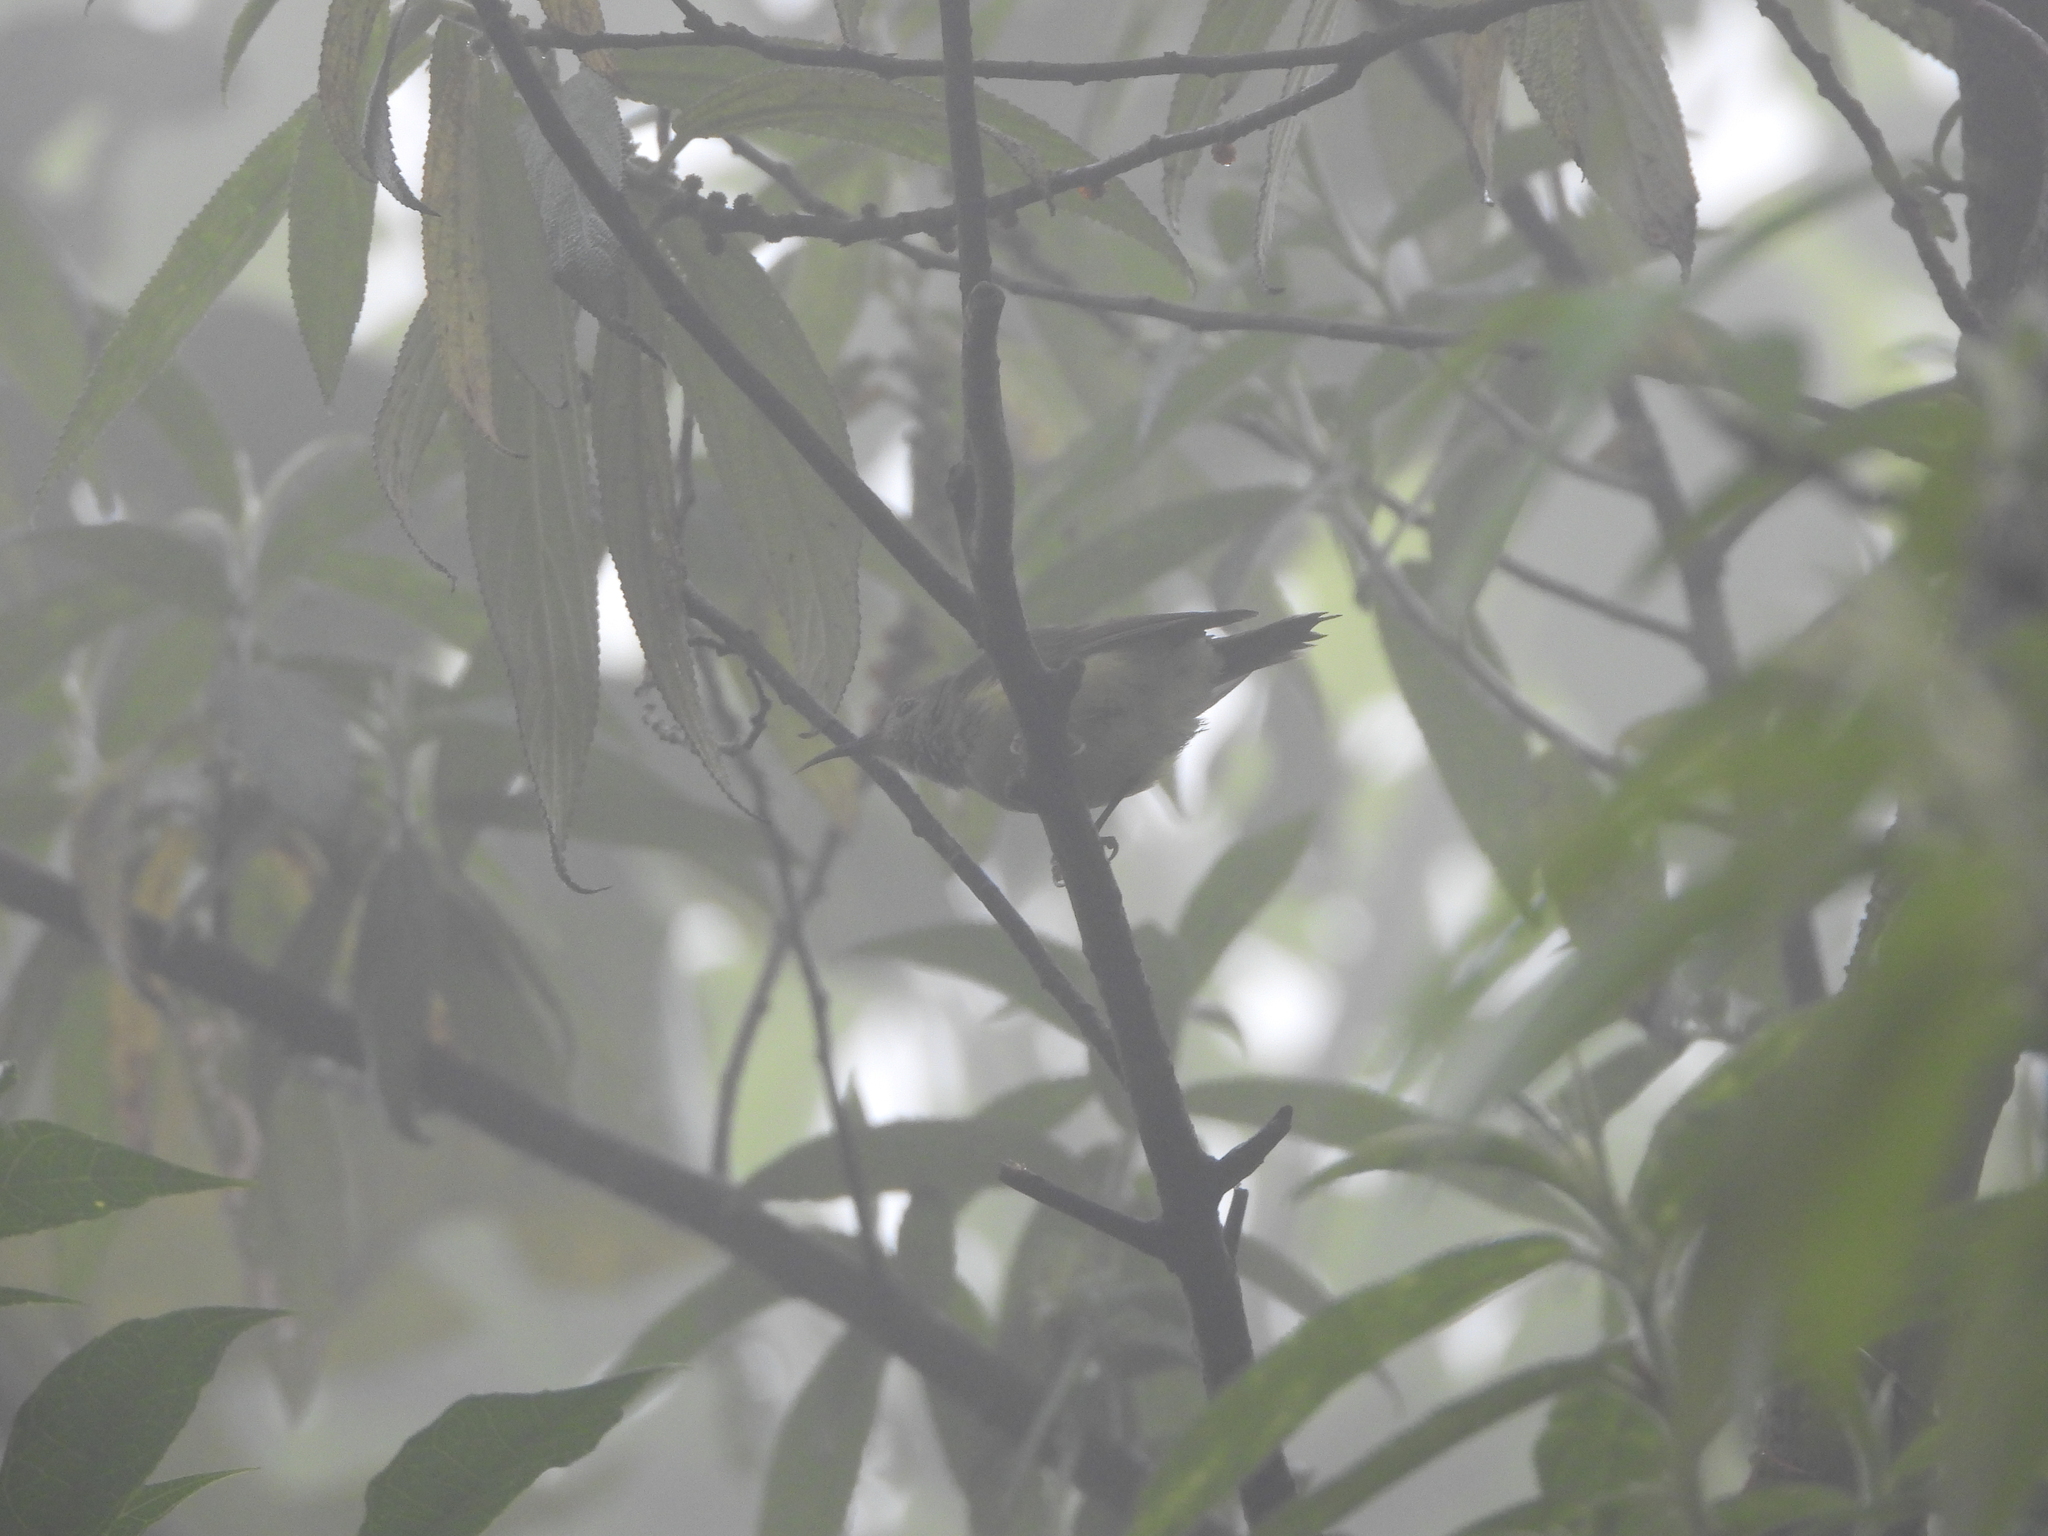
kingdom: Animalia
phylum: Chordata
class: Aves
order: Passeriformes
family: Nectariniidae
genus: Aethopyga
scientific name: Aethopyga nipalensis
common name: Green-tailed sunbird
